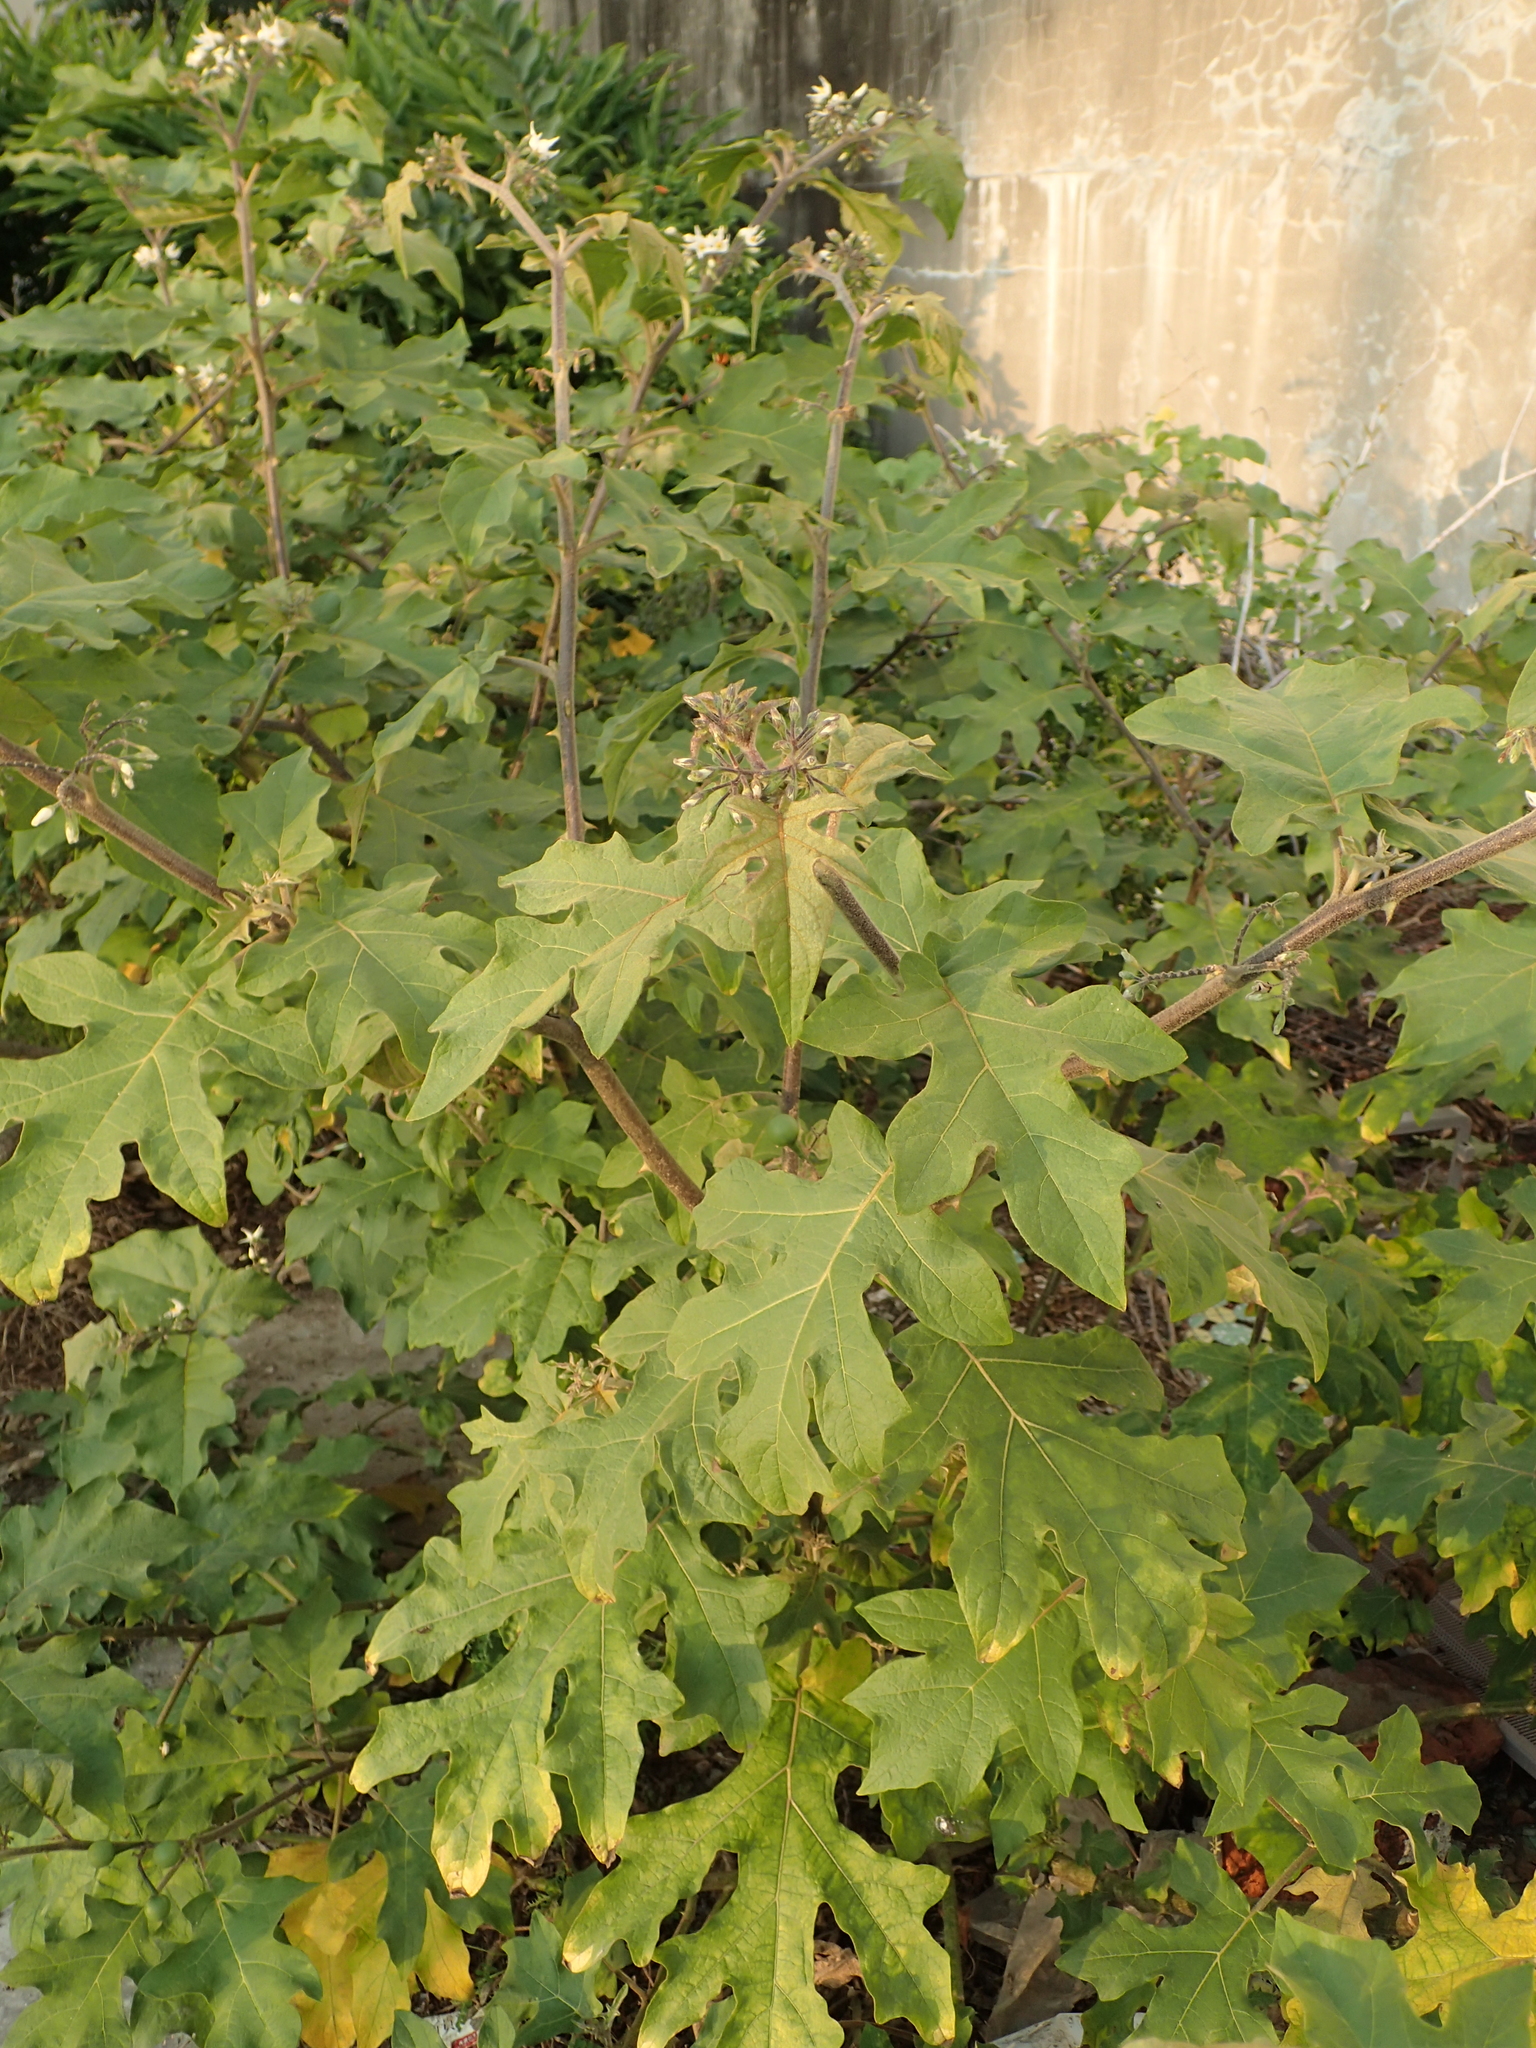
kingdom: Plantae
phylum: Tracheophyta
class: Magnoliopsida
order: Solanales
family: Solanaceae
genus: Solanum
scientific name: Solanum torvum
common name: Turkey berry
